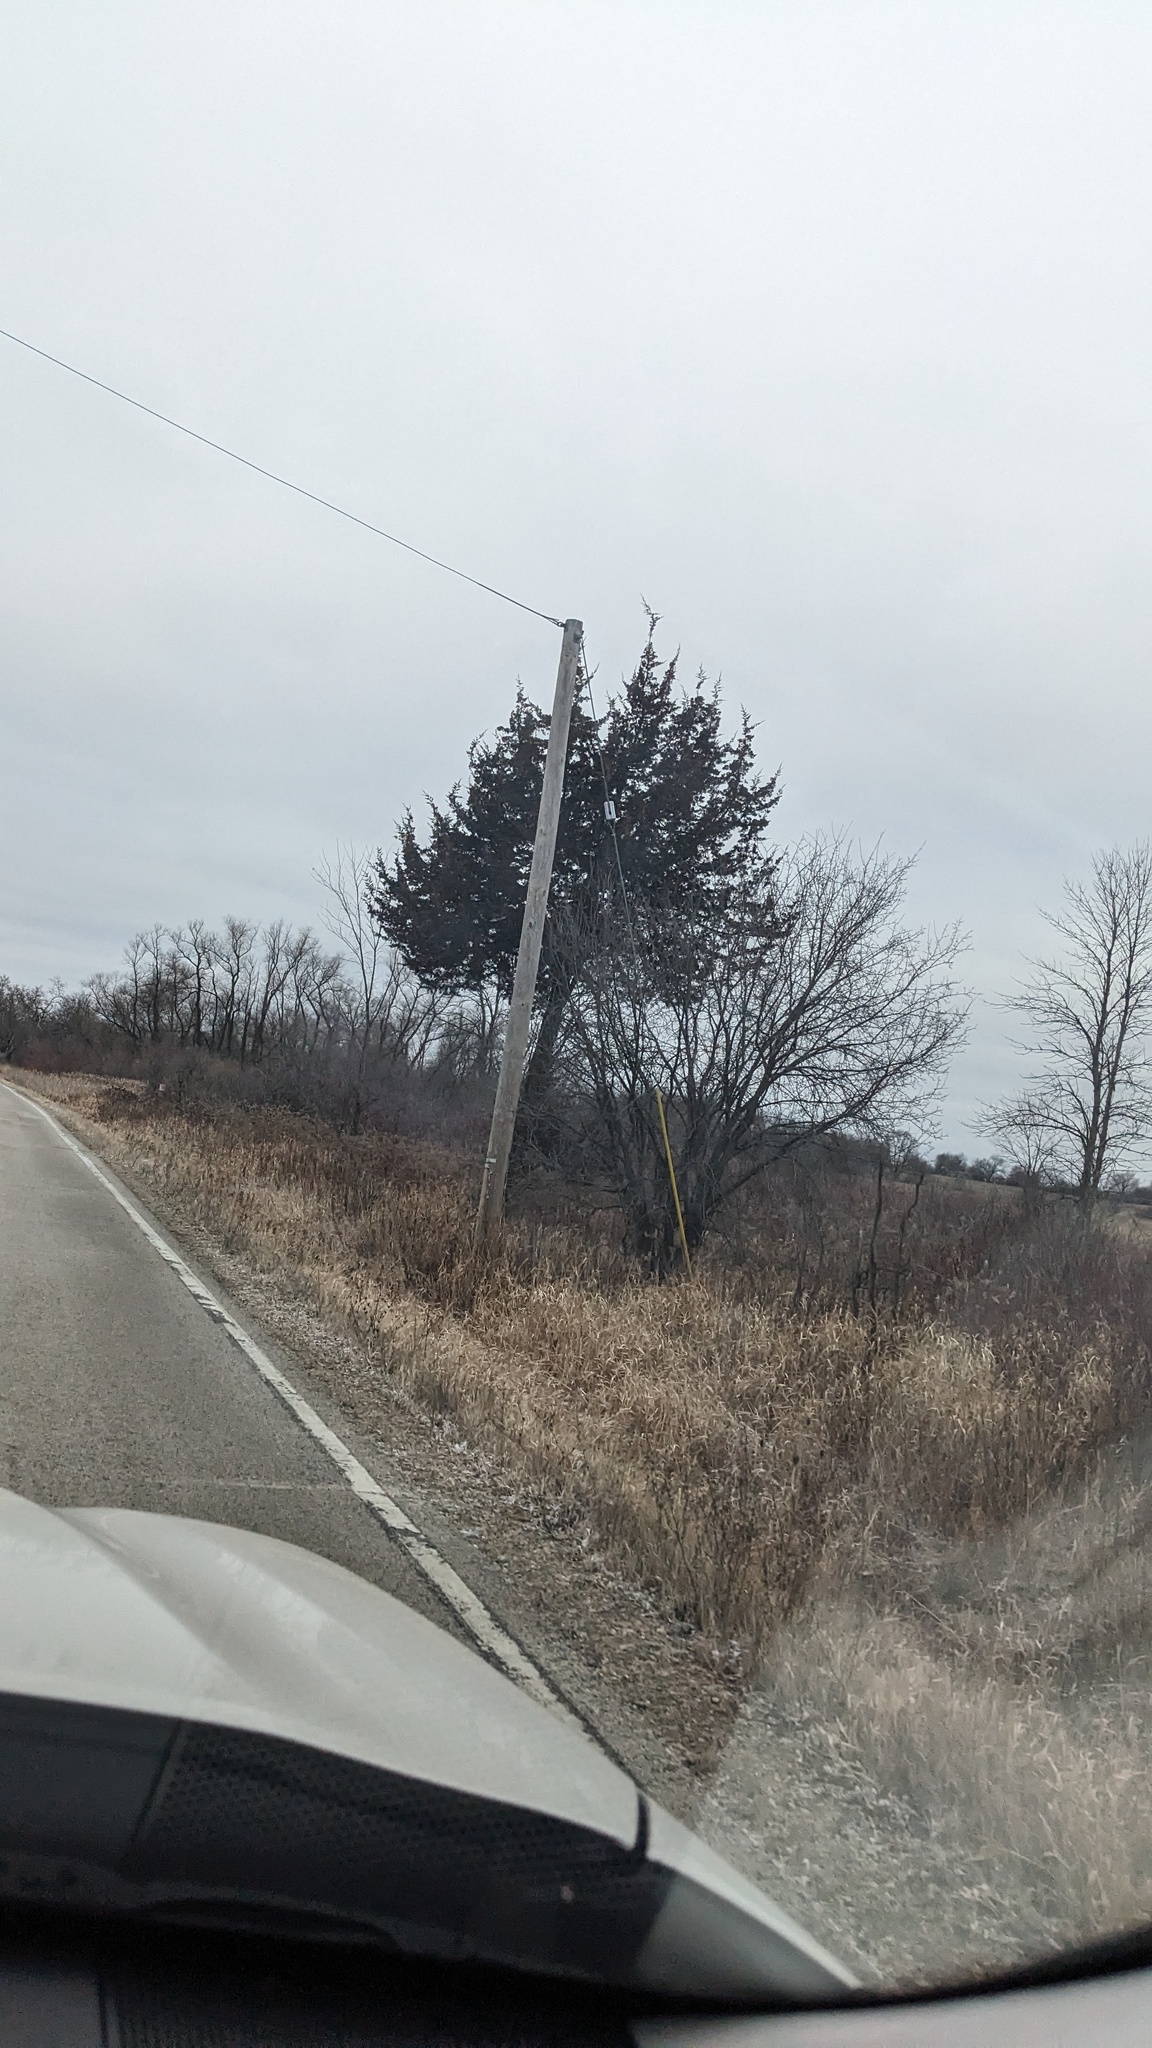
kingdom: Plantae
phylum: Tracheophyta
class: Pinopsida
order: Pinales
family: Cupressaceae
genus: Juniperus
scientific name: Juniperus virginiana
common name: Red juniper
